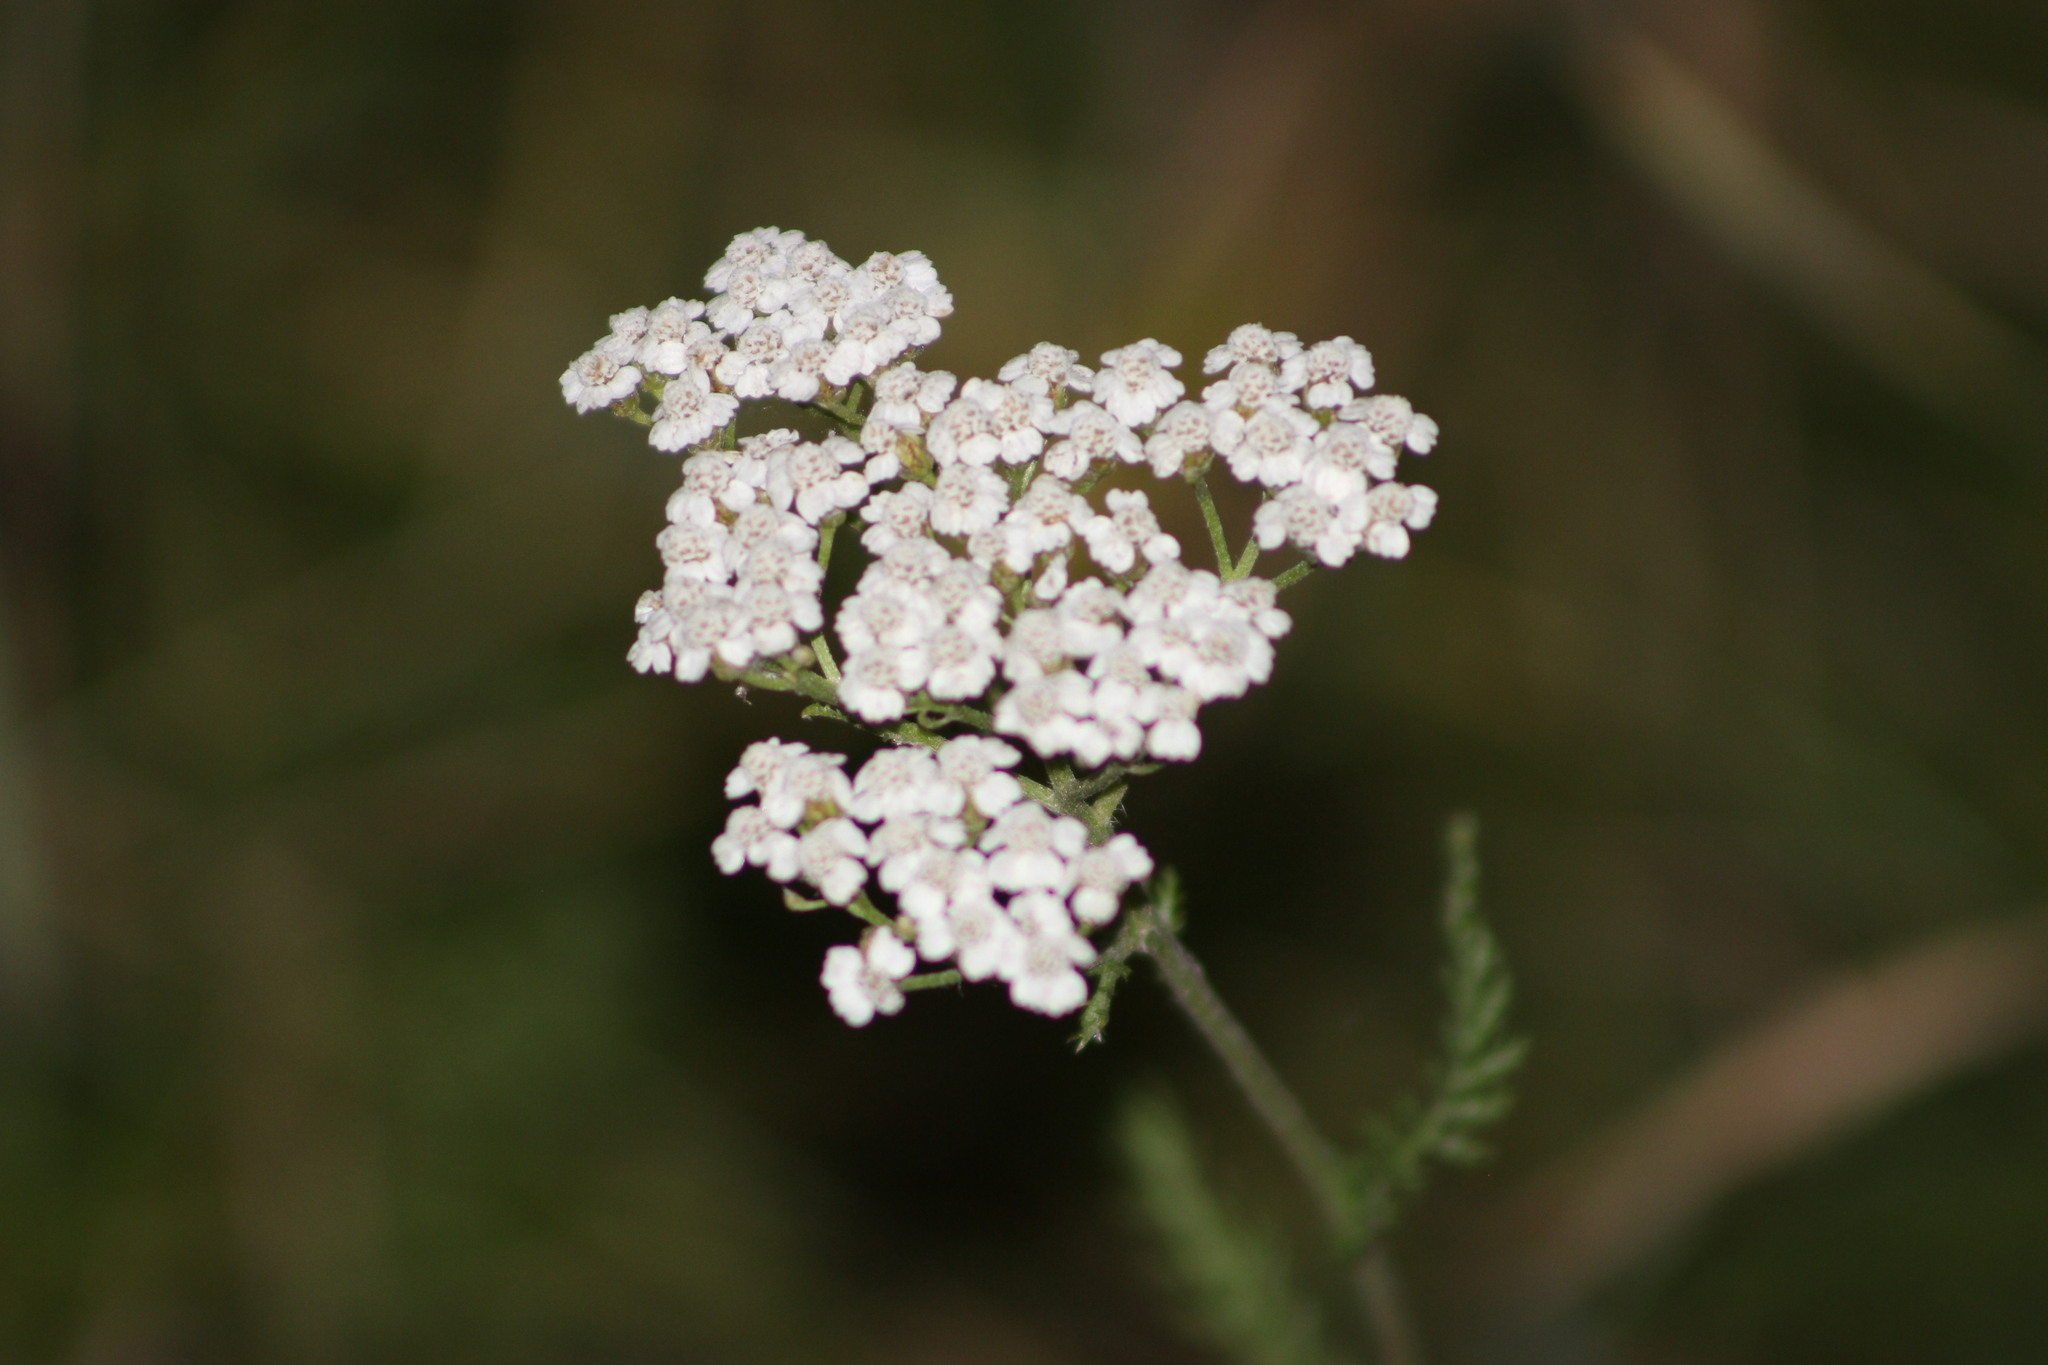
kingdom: Plantae
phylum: Tracheophyta
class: Magnoliopsida
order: Asterales
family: Asteraceae
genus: Achillea
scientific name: Achillea millefolium
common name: Yarrow
